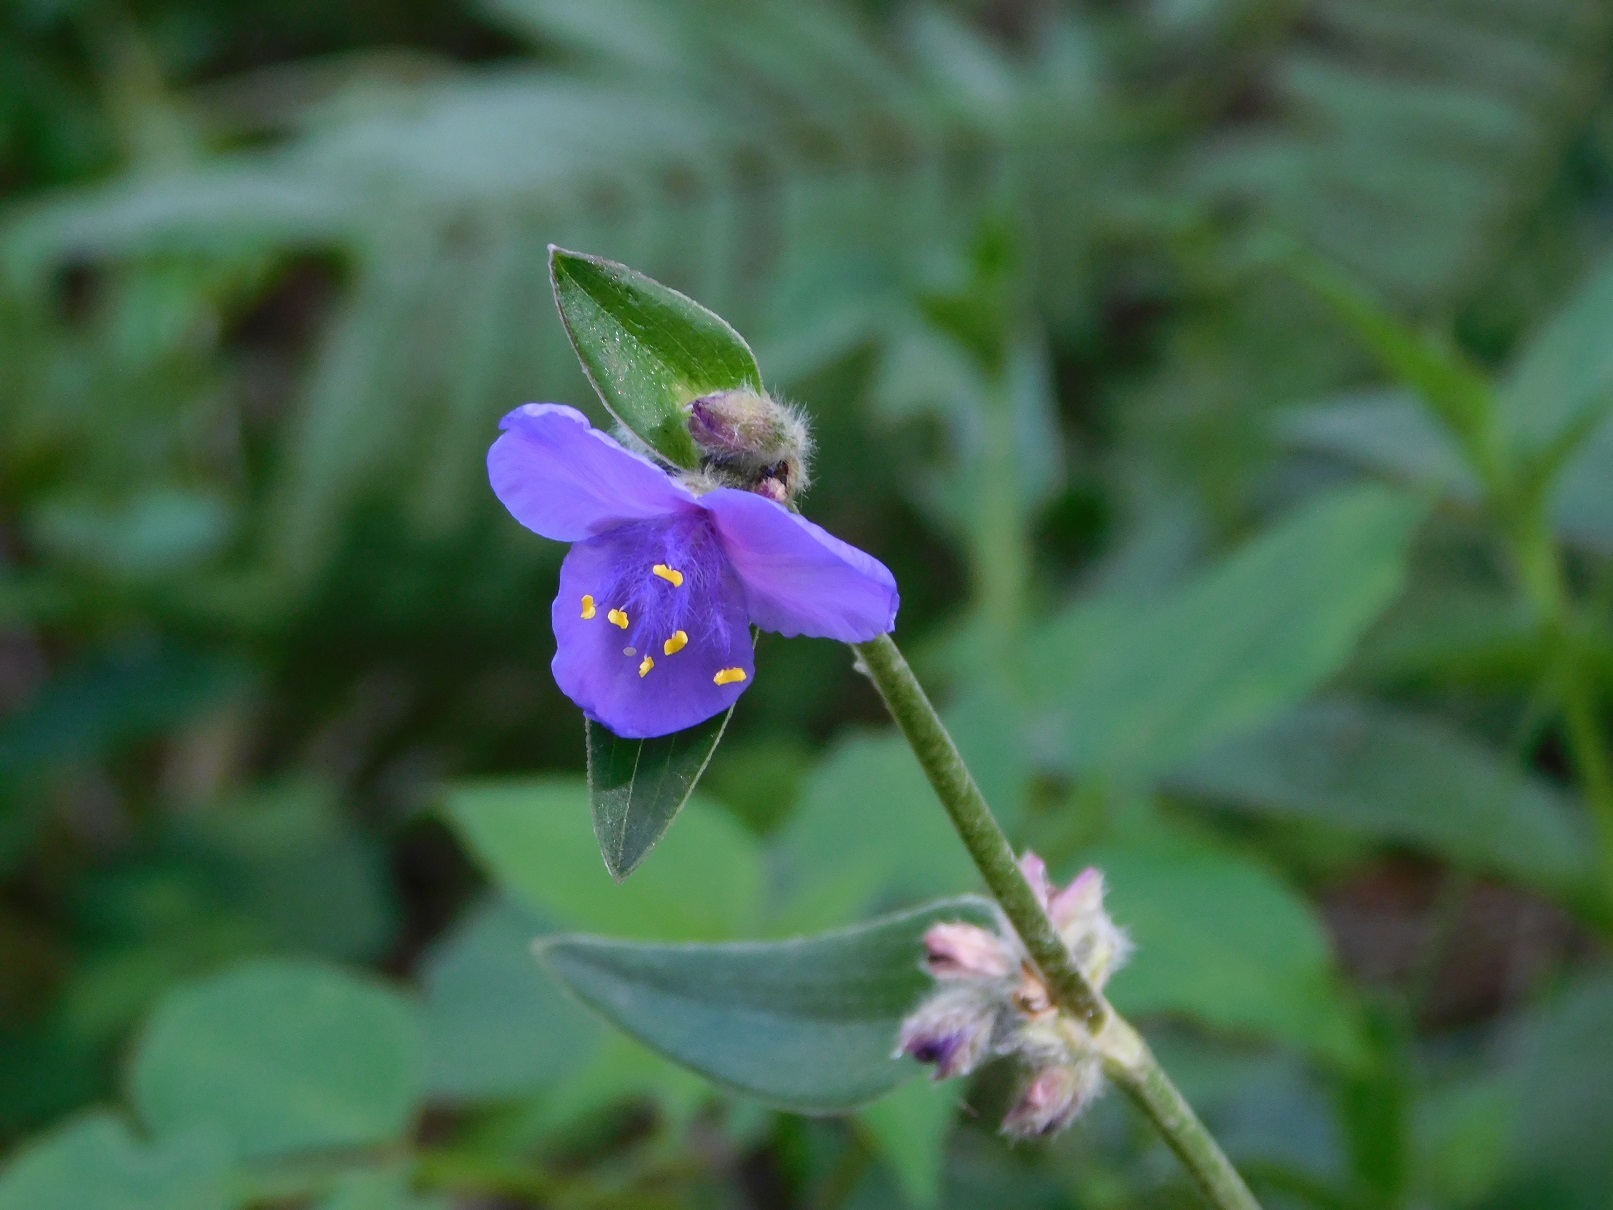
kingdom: Plantae
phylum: Tracheophyta
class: Liliopsida
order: Commelinales
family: Commelinaceae
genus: Tradescantia
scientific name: Tradescantia crassifolia
